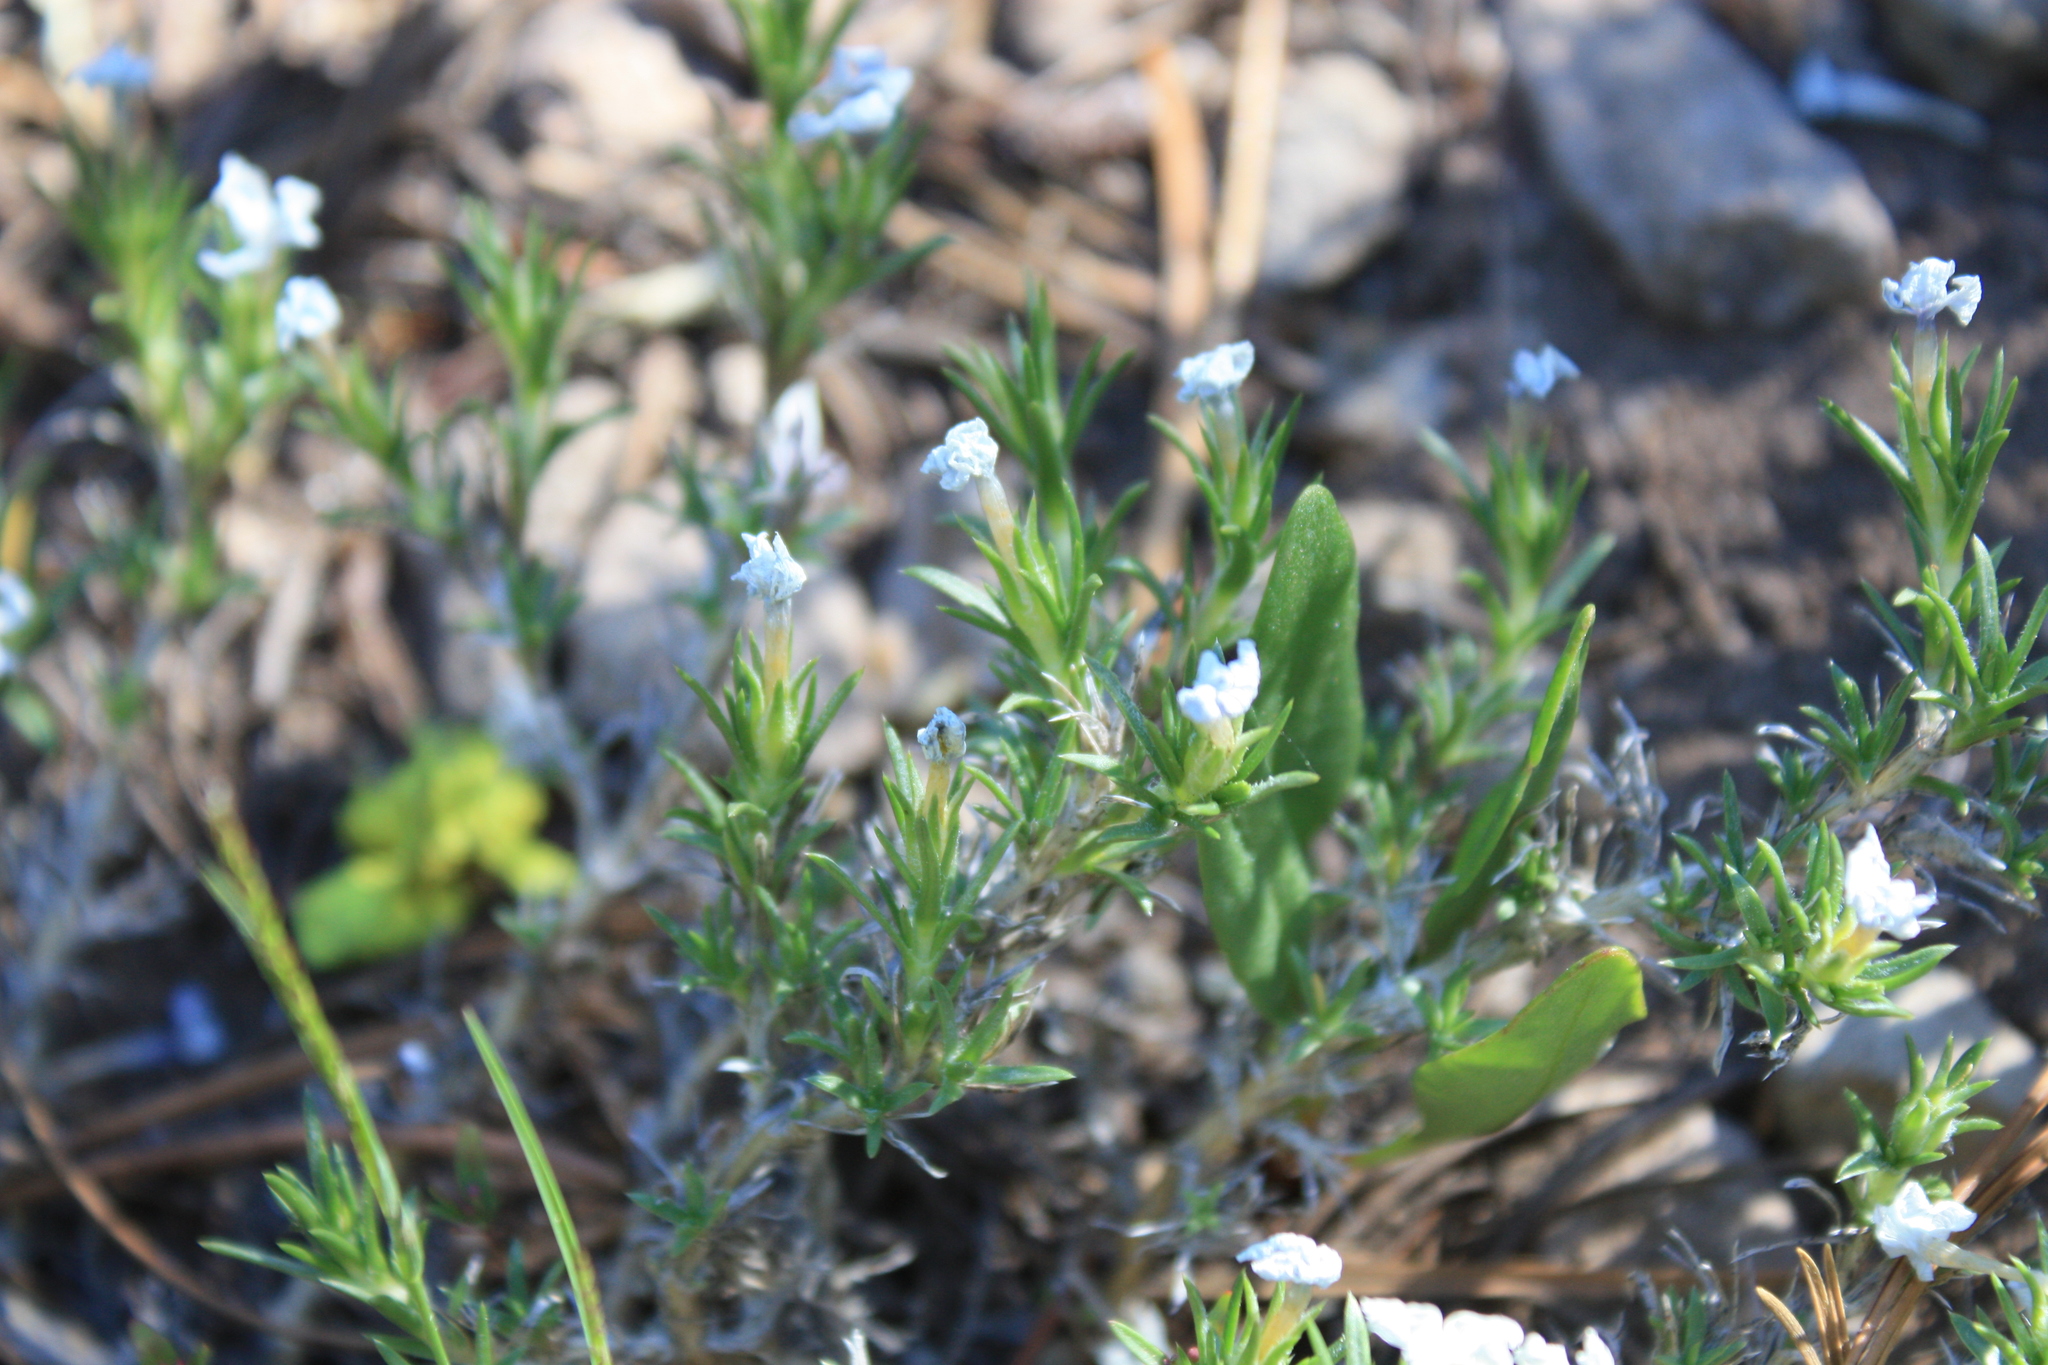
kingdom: Plantae
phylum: Tracheophyta
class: Magnoliopsida
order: Ericales
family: Polemoniaceae
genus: Phlox
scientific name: Phlox diffusa
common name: Mat phlox
